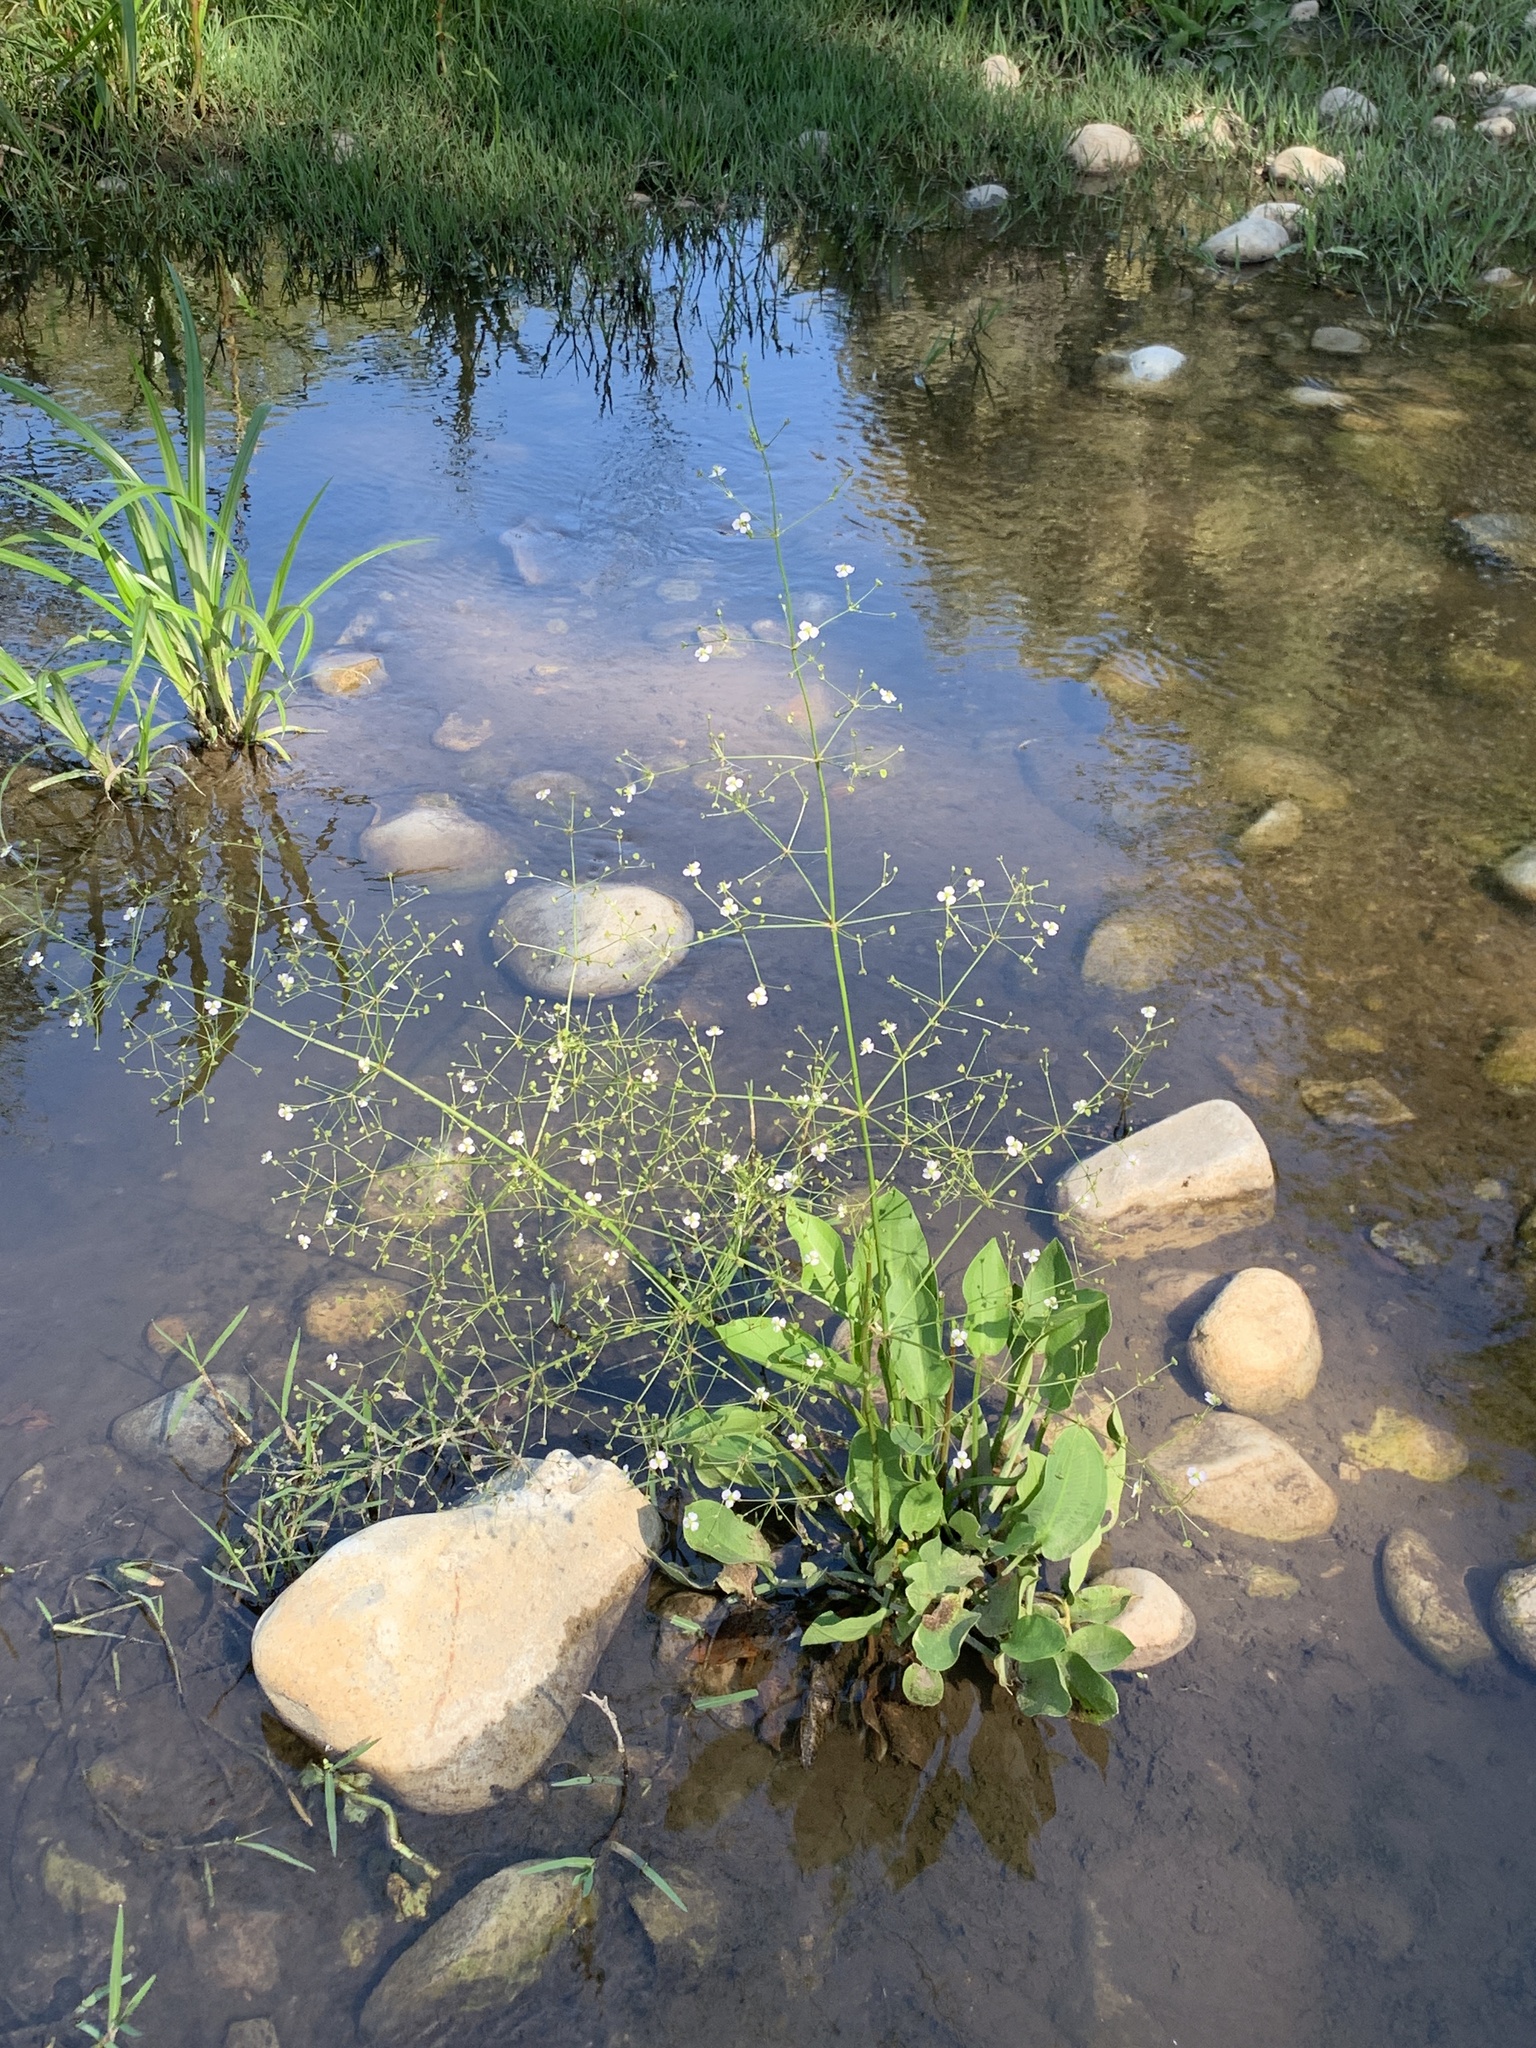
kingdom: Plantae
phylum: Tracheophyta
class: Liliopsida
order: Alismatales
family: Alismataceae
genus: Alisma
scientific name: Alisma plantago-aquatica
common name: Water-plantain
